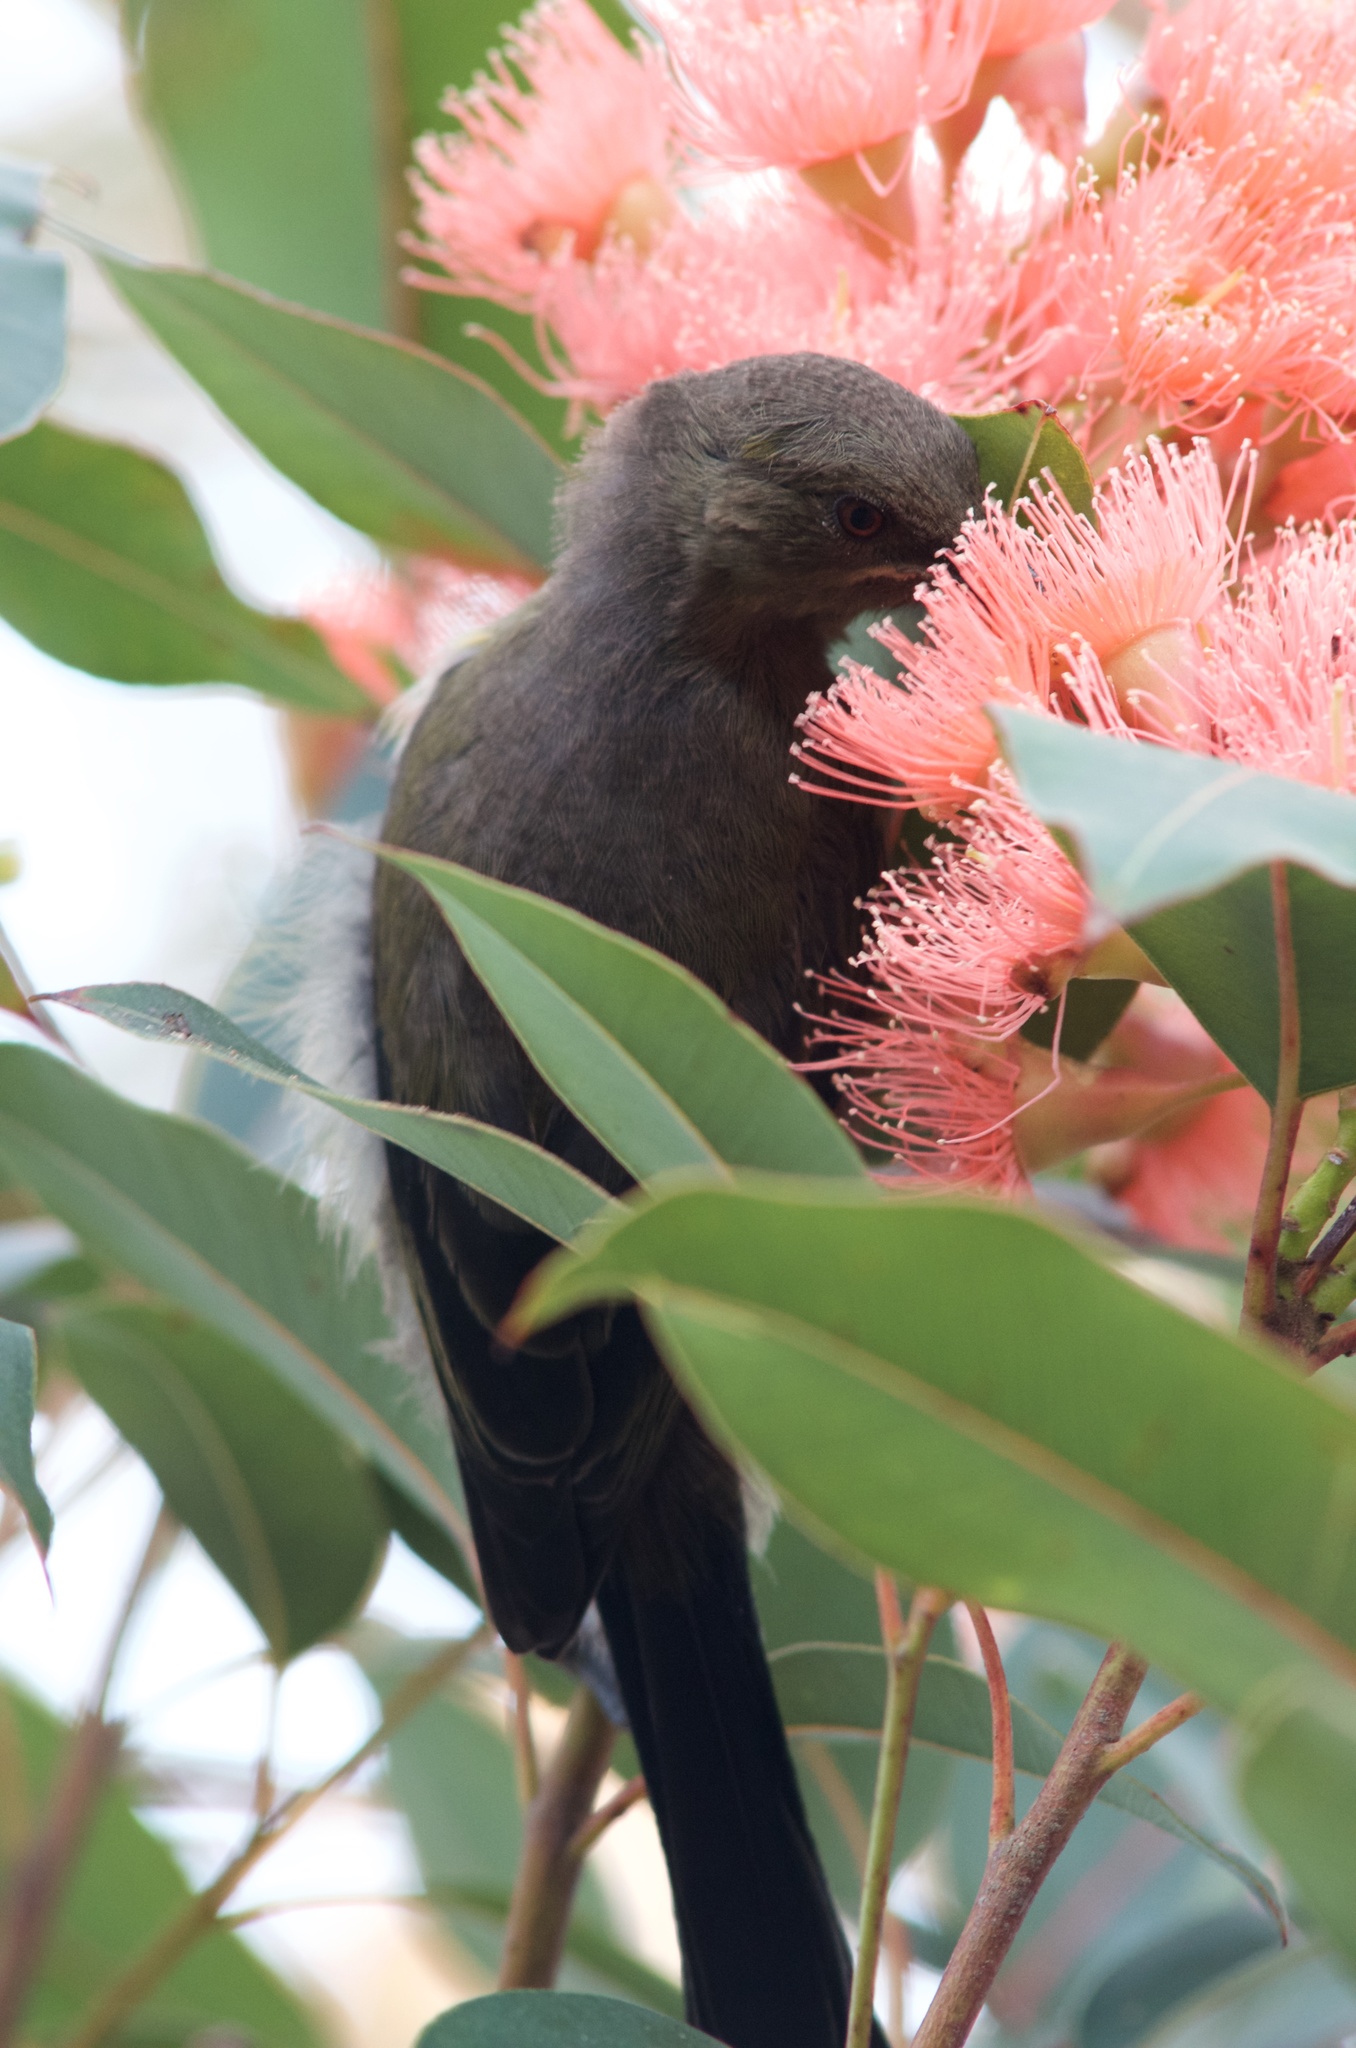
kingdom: Animalia
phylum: Chordata
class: Aves
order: Passeriformes
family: Meliphagidae
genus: Anthornis
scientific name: Anthornis melanura
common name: New zealand bellbird
